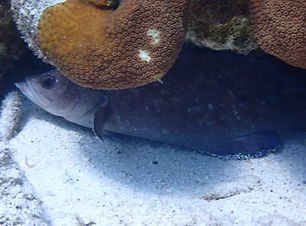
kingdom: Animalia
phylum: Chordata
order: Perciformes
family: Serranidae
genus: Rypticus
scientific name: Rypticus saponaceus
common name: Soapfish
